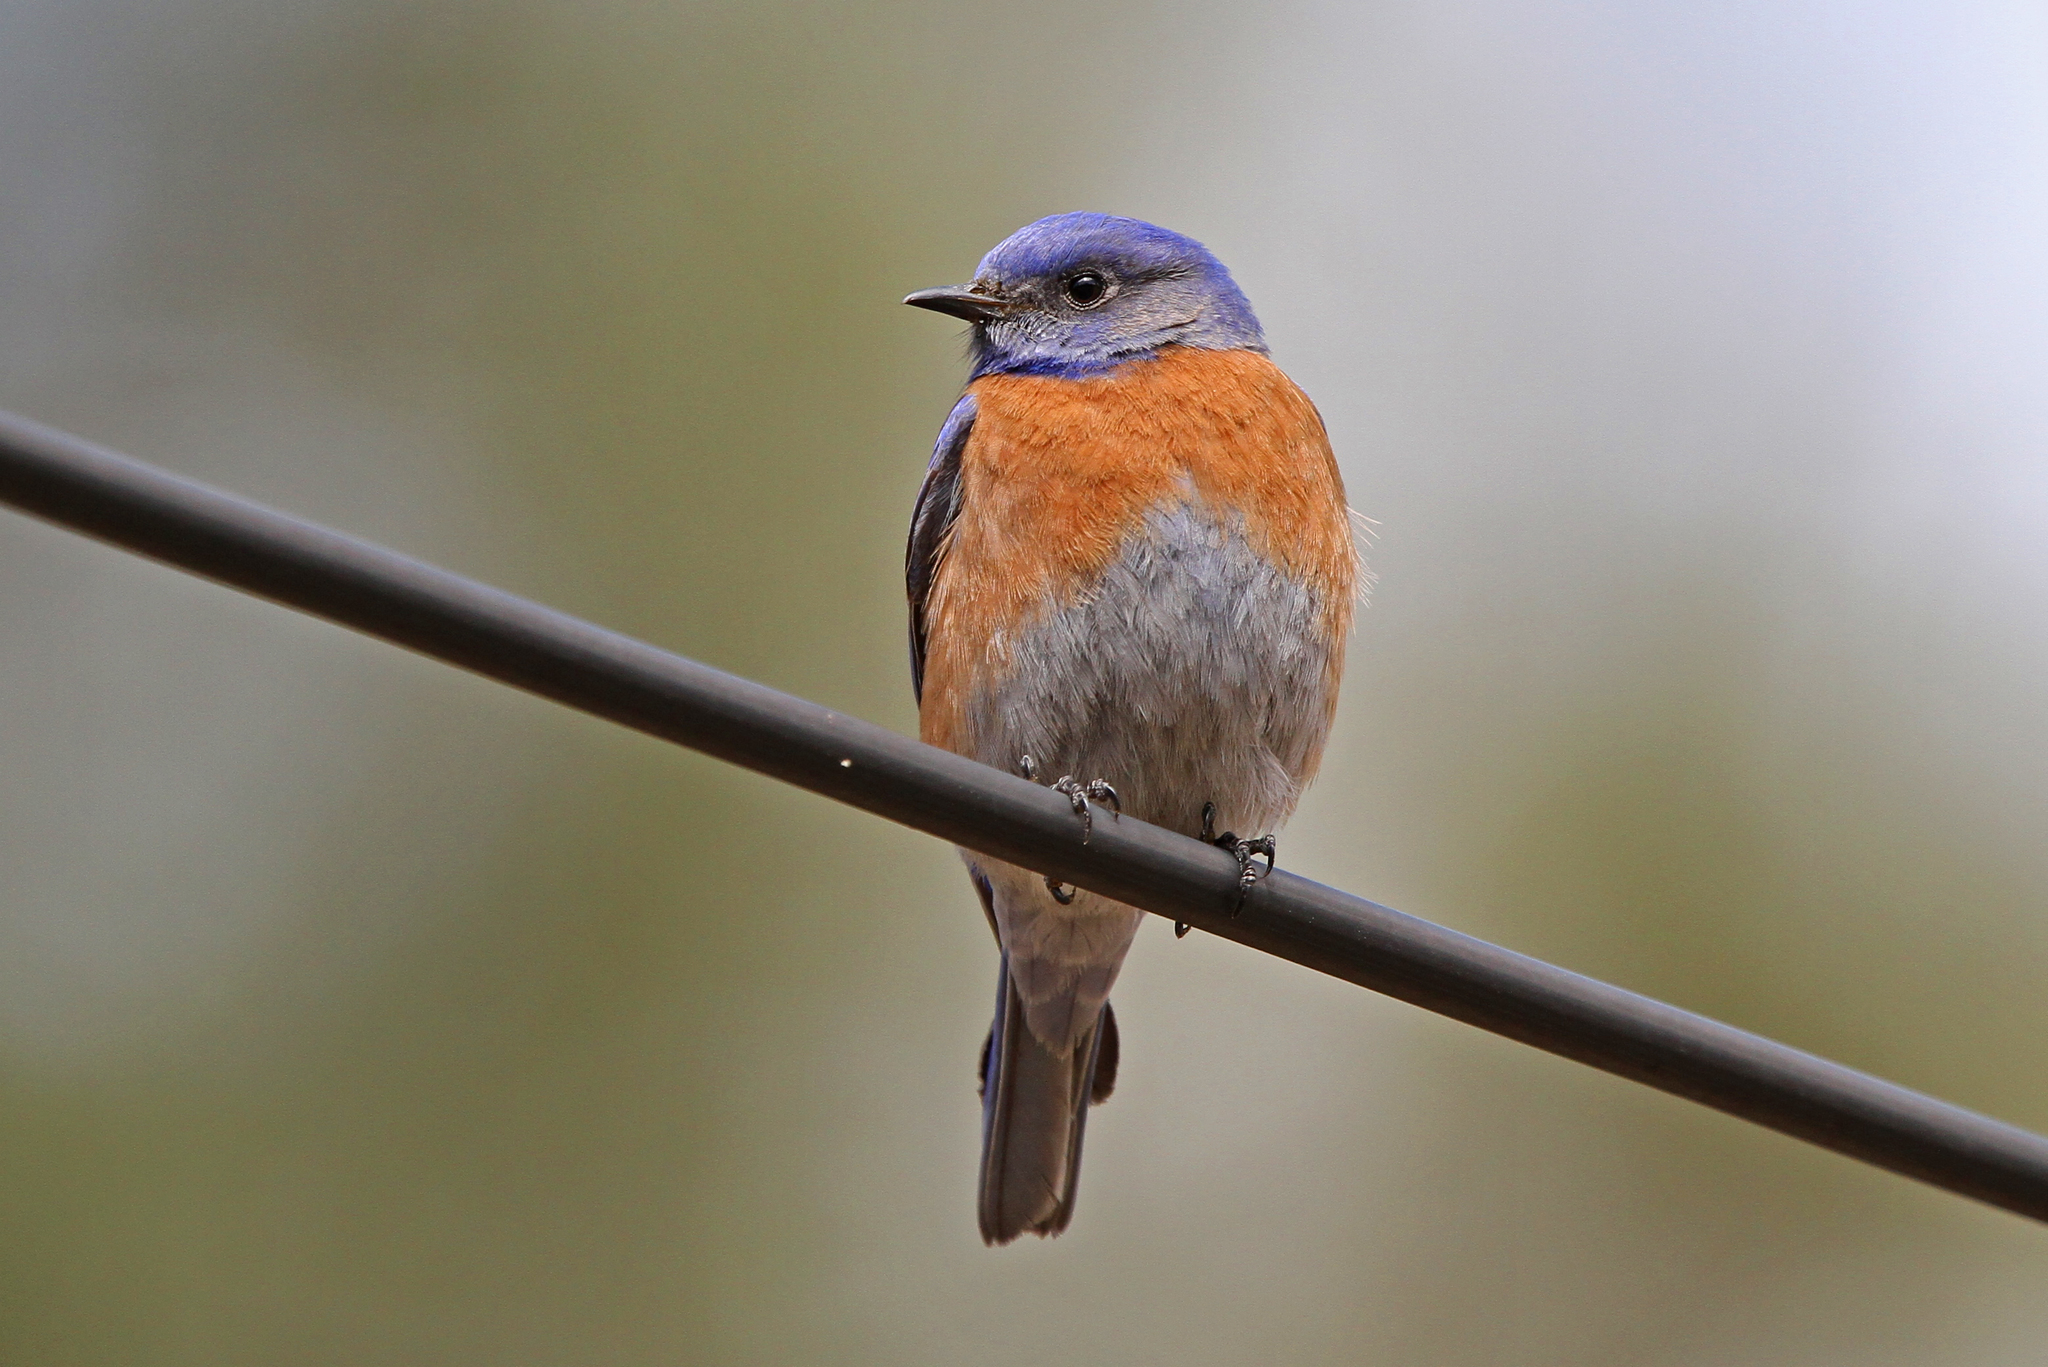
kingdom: Animalia
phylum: Chordata
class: Aves
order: Passeriformes
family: Turdidae
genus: Sialia
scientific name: Sialia mexicana
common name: Western bluebird
